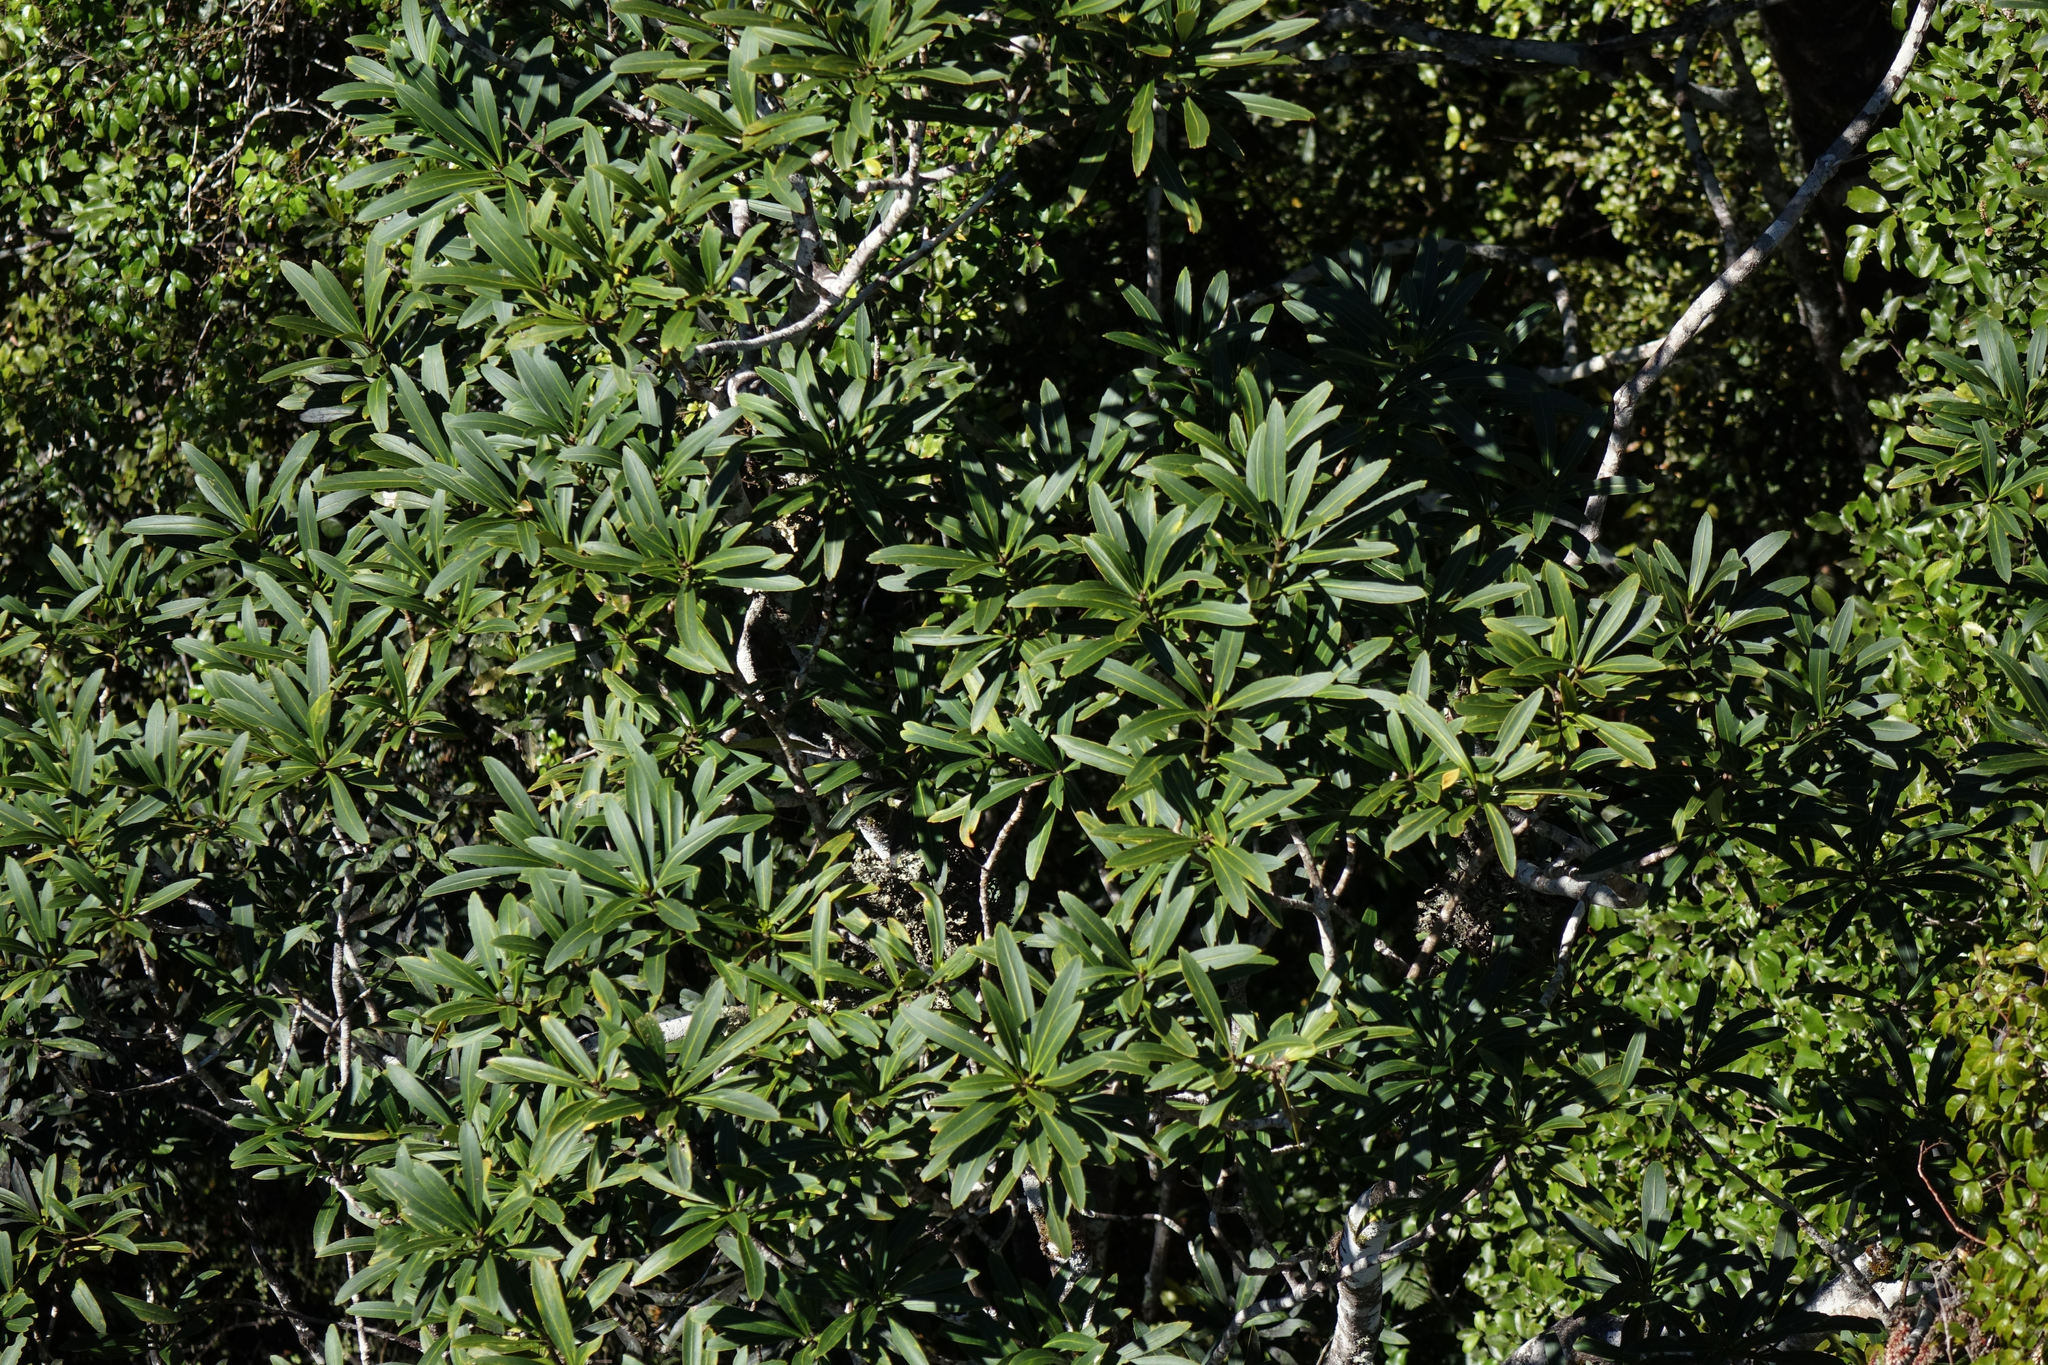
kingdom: Plantae
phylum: Tracheophyta
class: Magnoliopsida
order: Apiales
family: Araliaceae
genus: Pseudopanax
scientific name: Pseudopanax crassifolius
